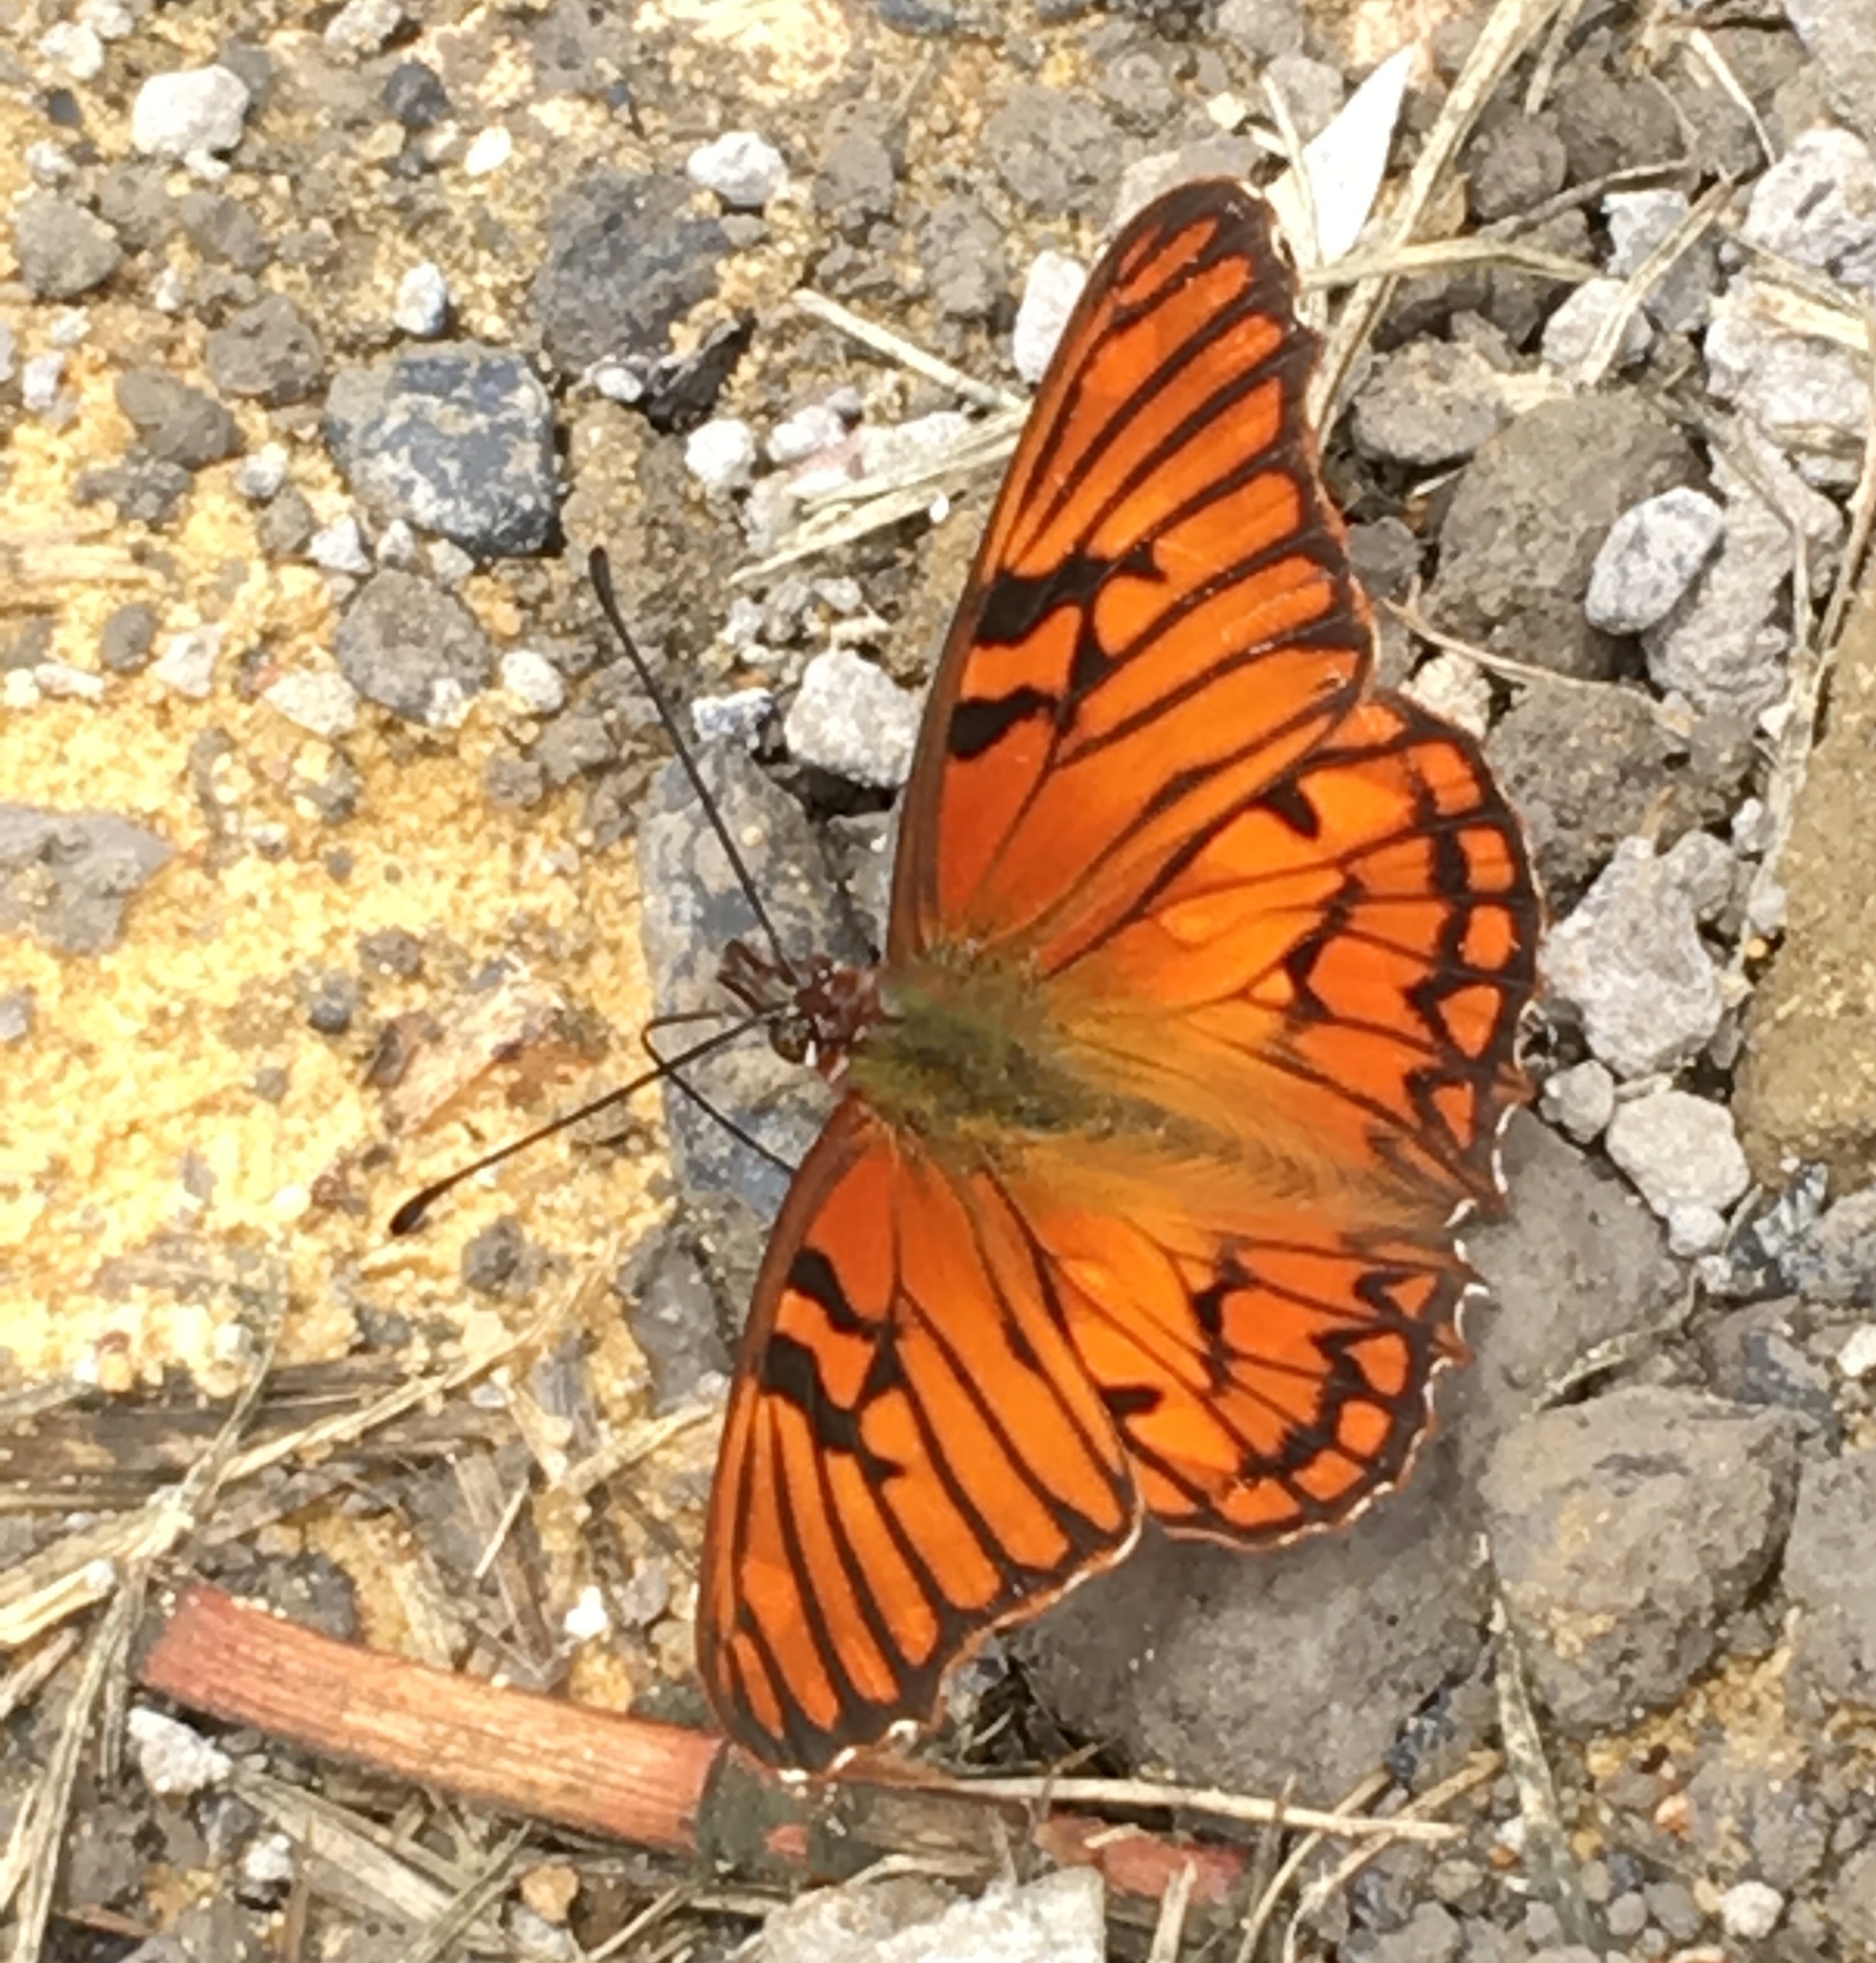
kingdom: Animalia
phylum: Arthropoda
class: Insecta
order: Lepidoptera
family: Nymphalidae
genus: Dione
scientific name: Dione glycera
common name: Andean silverspot
